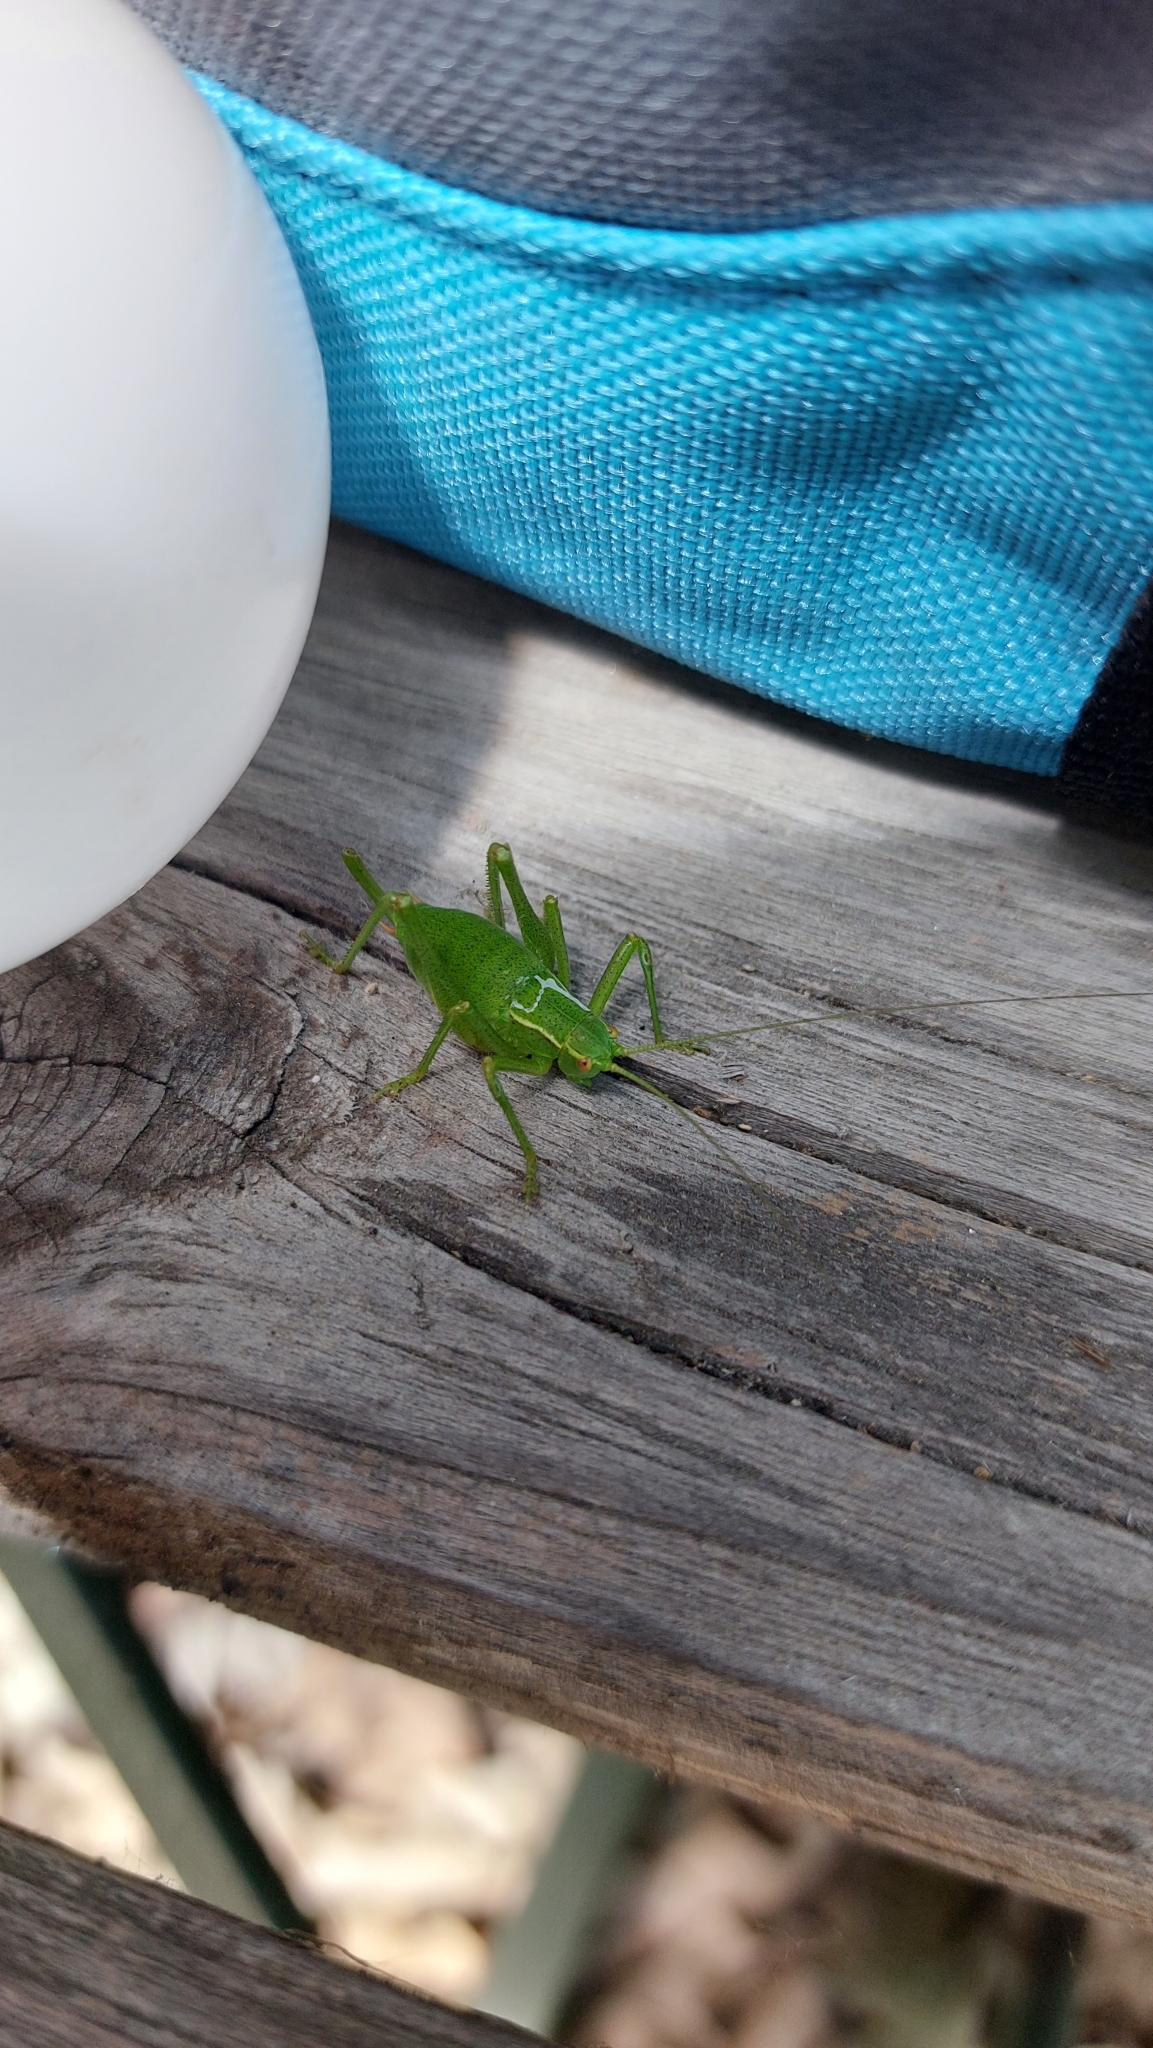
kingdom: Animalia
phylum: Arthropoda
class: Insecta
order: Orthoptera
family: Tettigoniidae
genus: Barbitistes
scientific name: Barbitistes serricauda
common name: Saw-tailed bush-cricket
